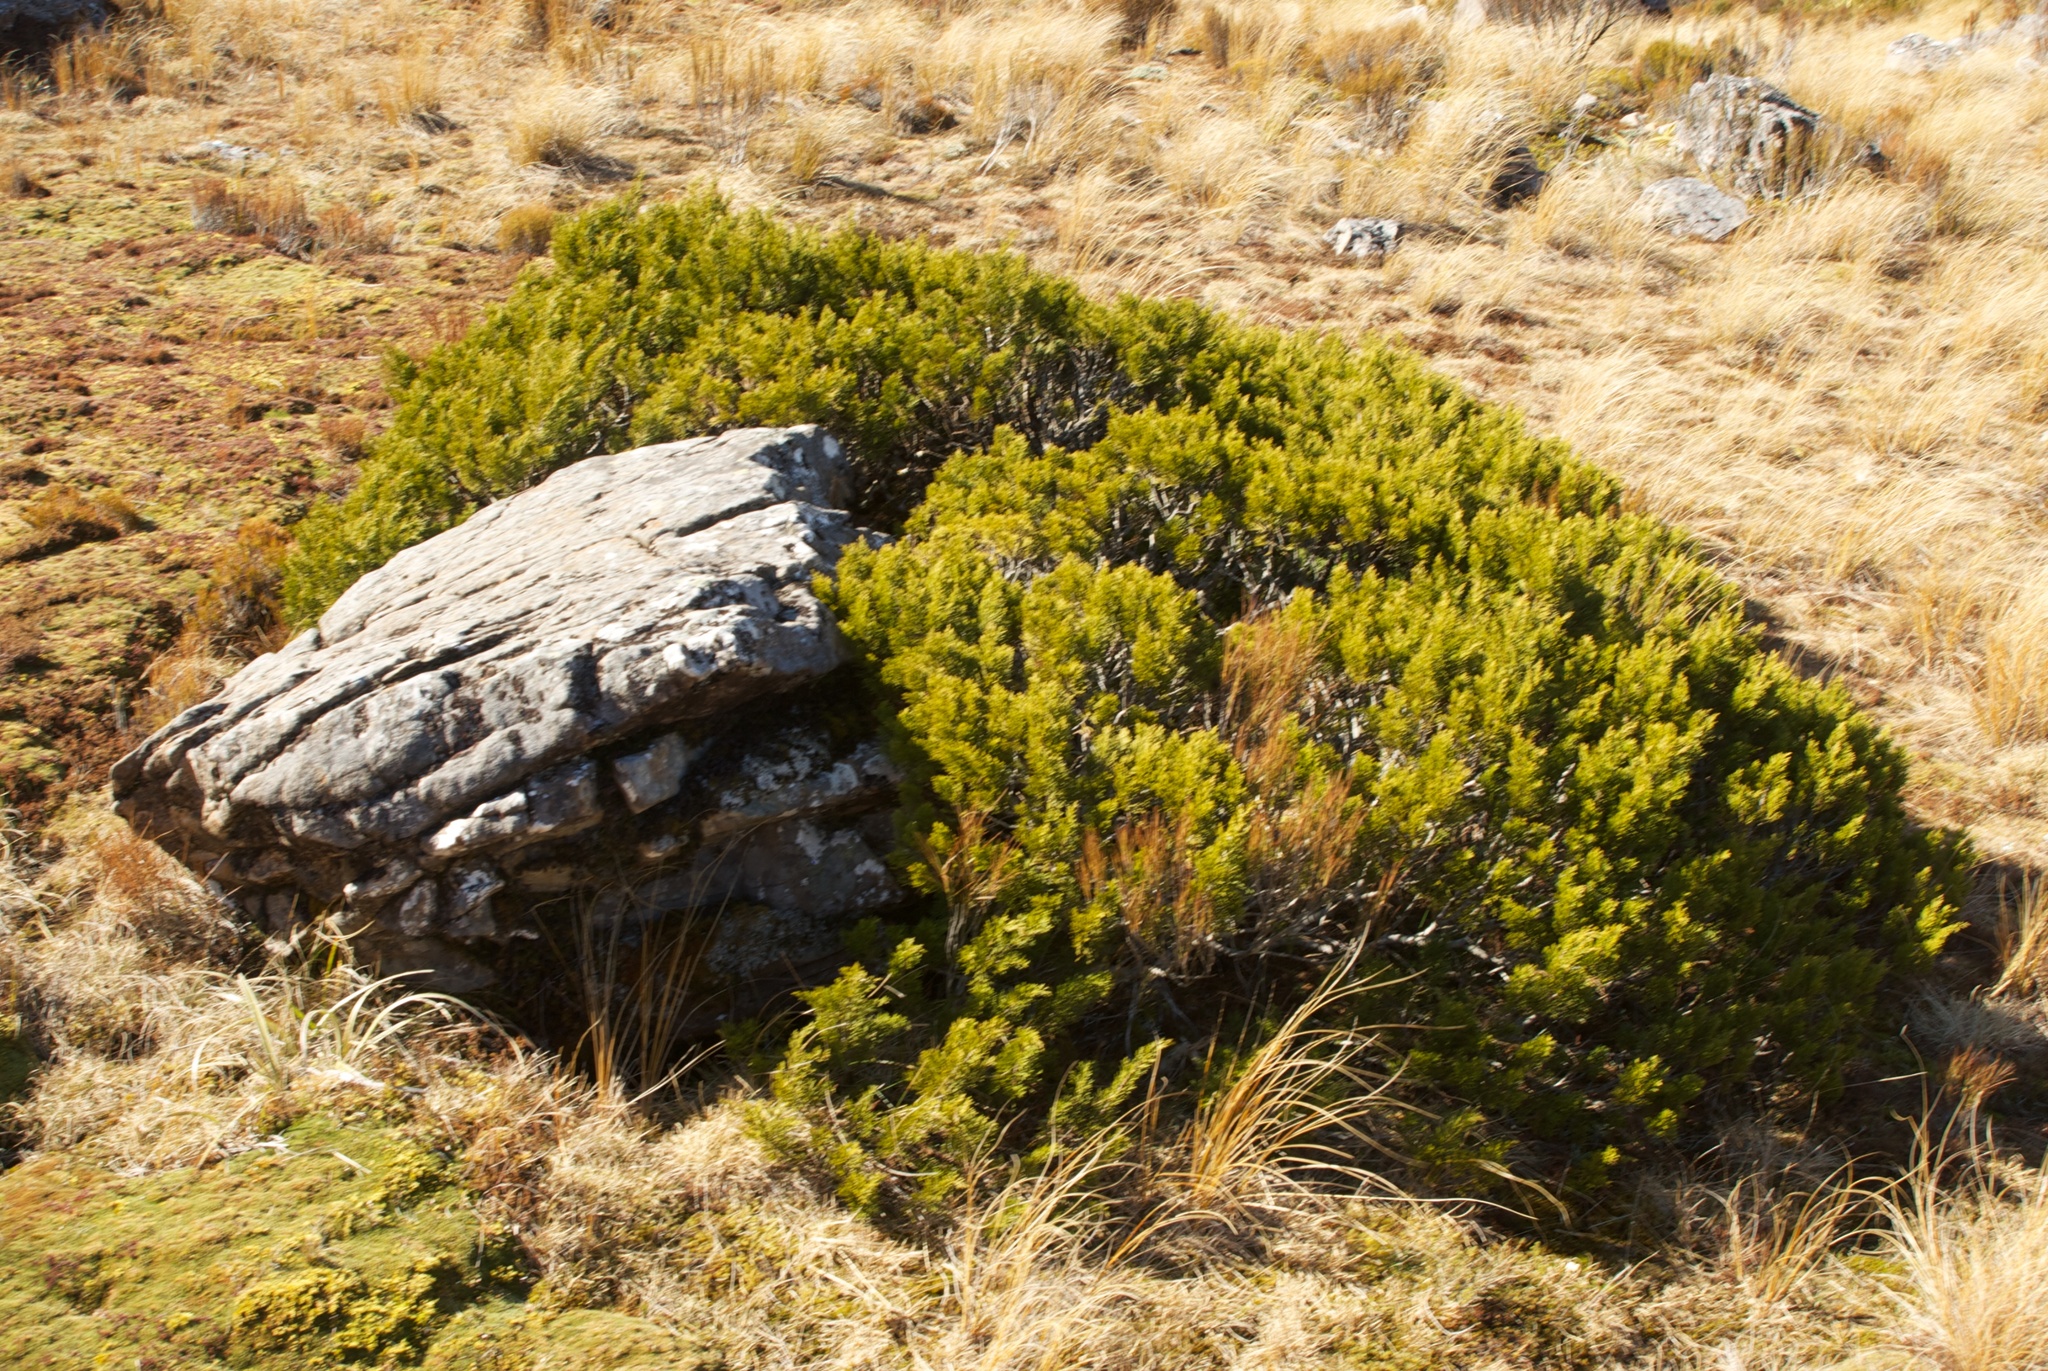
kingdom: Plantae
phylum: Tracheophyta
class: Pinopsida
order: Pinales
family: Podocarpaceae
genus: Halocarpus
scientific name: Halocarpus bidwillii
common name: Bog pine
